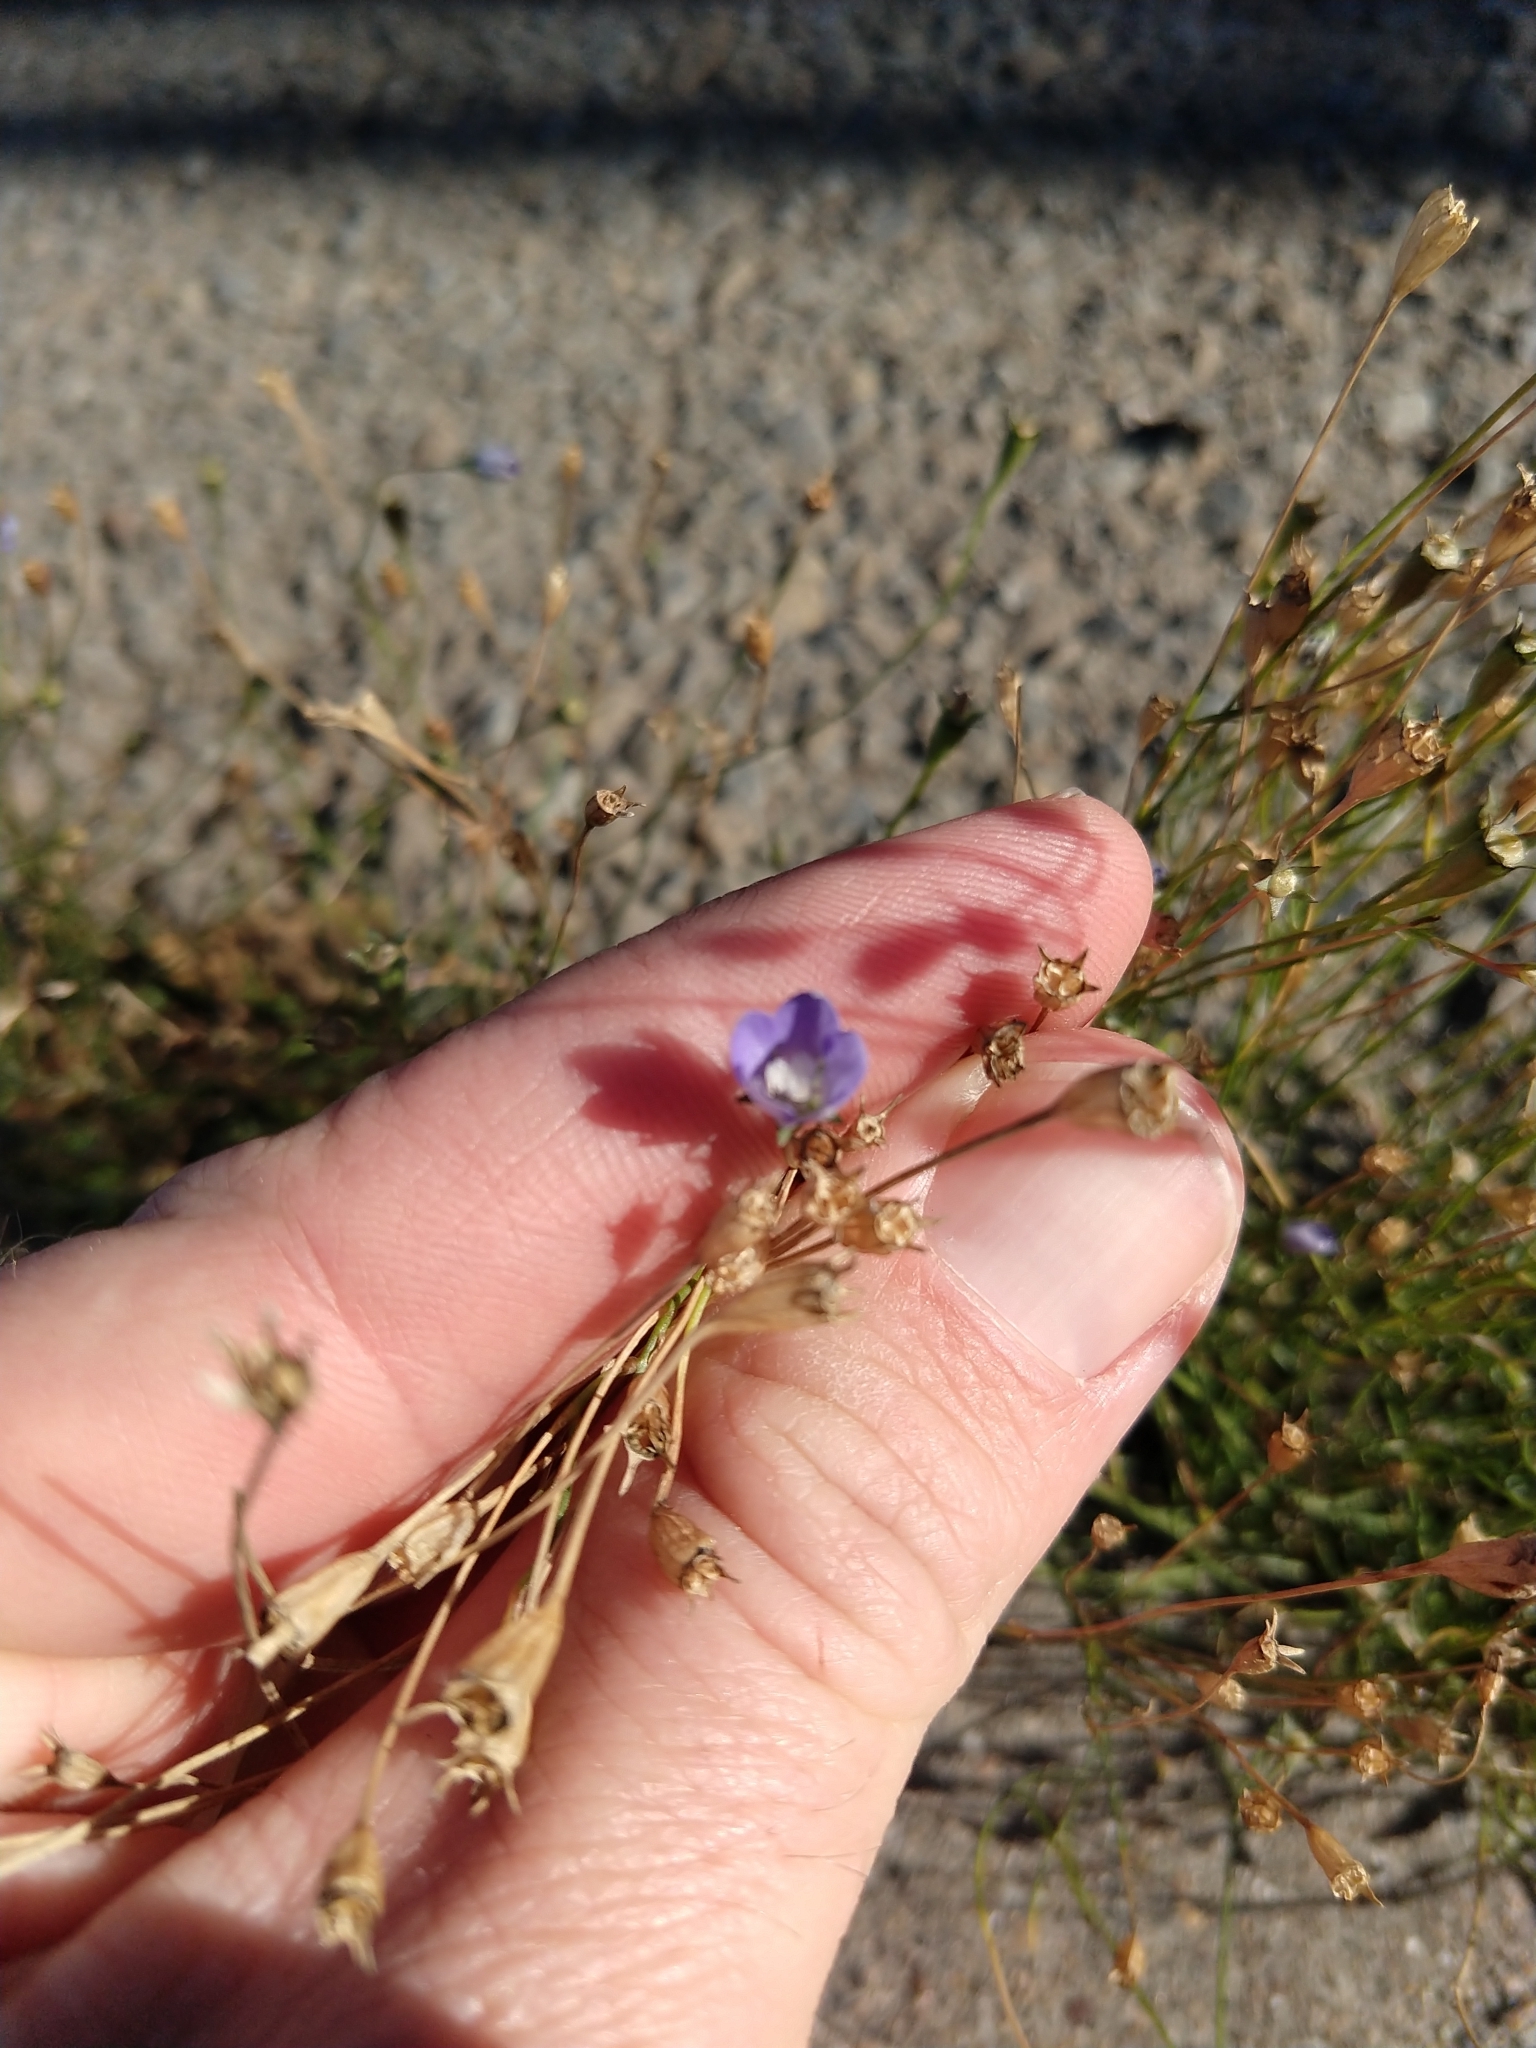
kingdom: Plantae
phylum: Tracheophyta
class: Magnoliopsida
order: Asterales
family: Campanulaceae
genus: Wahlenbergia
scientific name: Wahlenbergia marginata
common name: Southern rockbell
